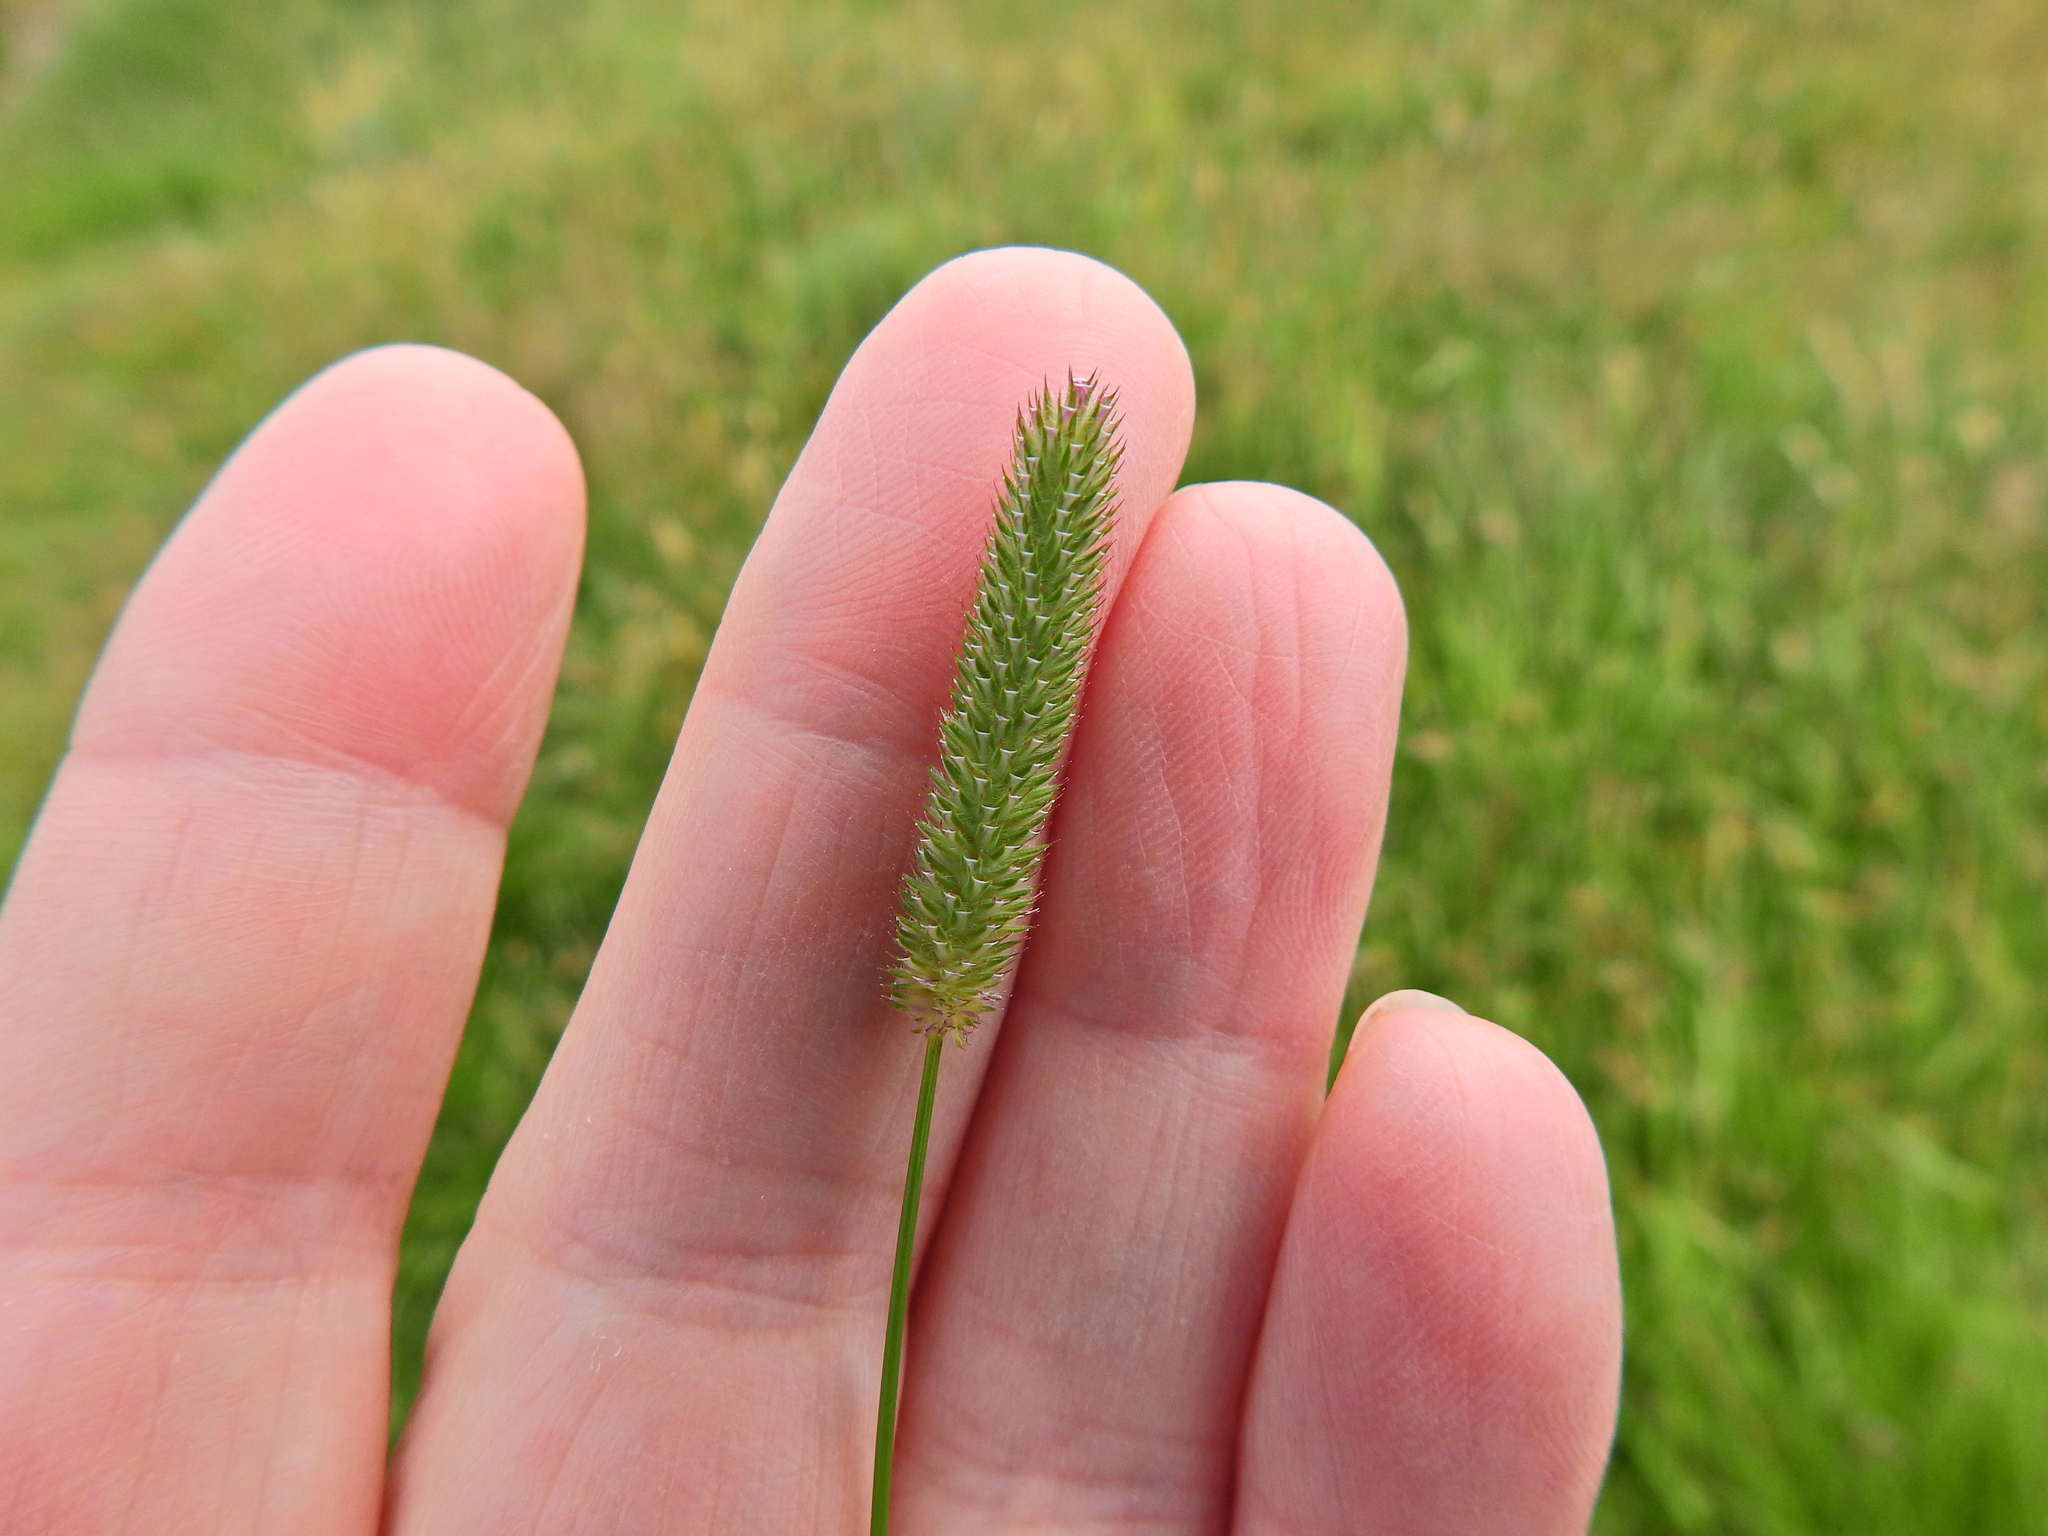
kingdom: Plantae
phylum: Tracheophyta
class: Liliopsida
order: Poales
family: Poaceae
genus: Phleum
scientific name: Phleum pratense
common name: Timothy grass
